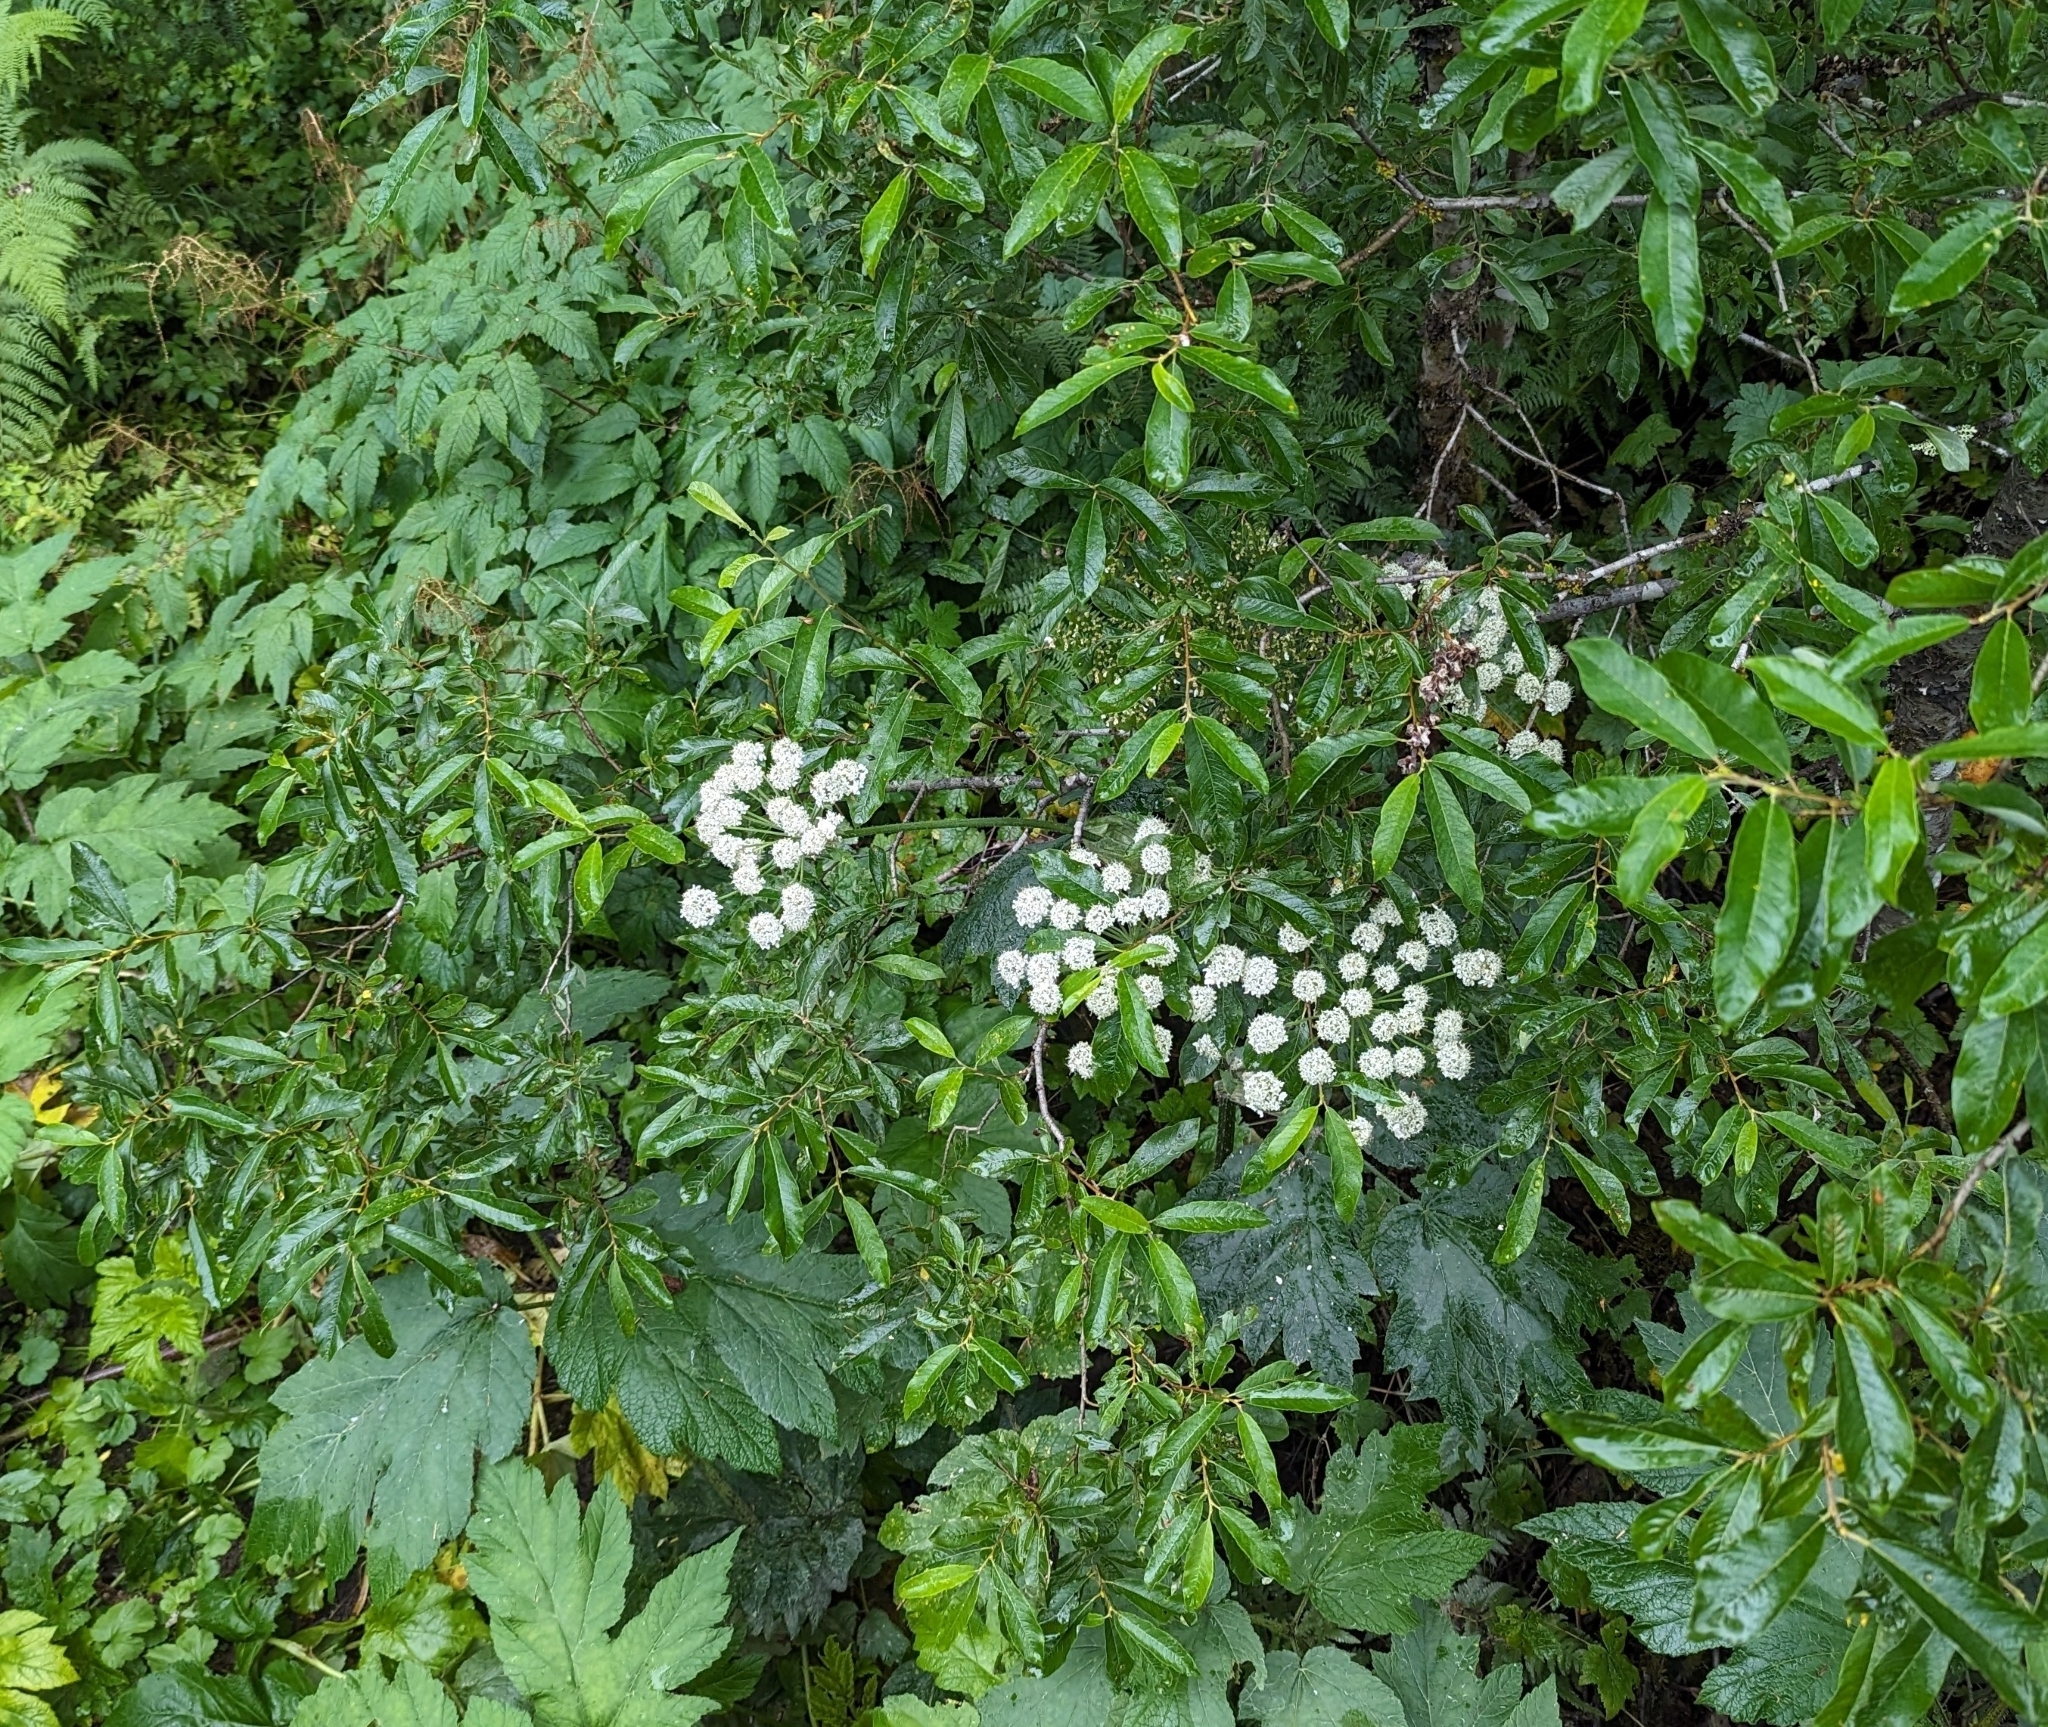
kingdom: Plantae
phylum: Tracheophyta
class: Magnoliopsida
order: Apiales
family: Apiaceae
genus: Heracleum
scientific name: Heracleum maximum
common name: American cow parsnip
